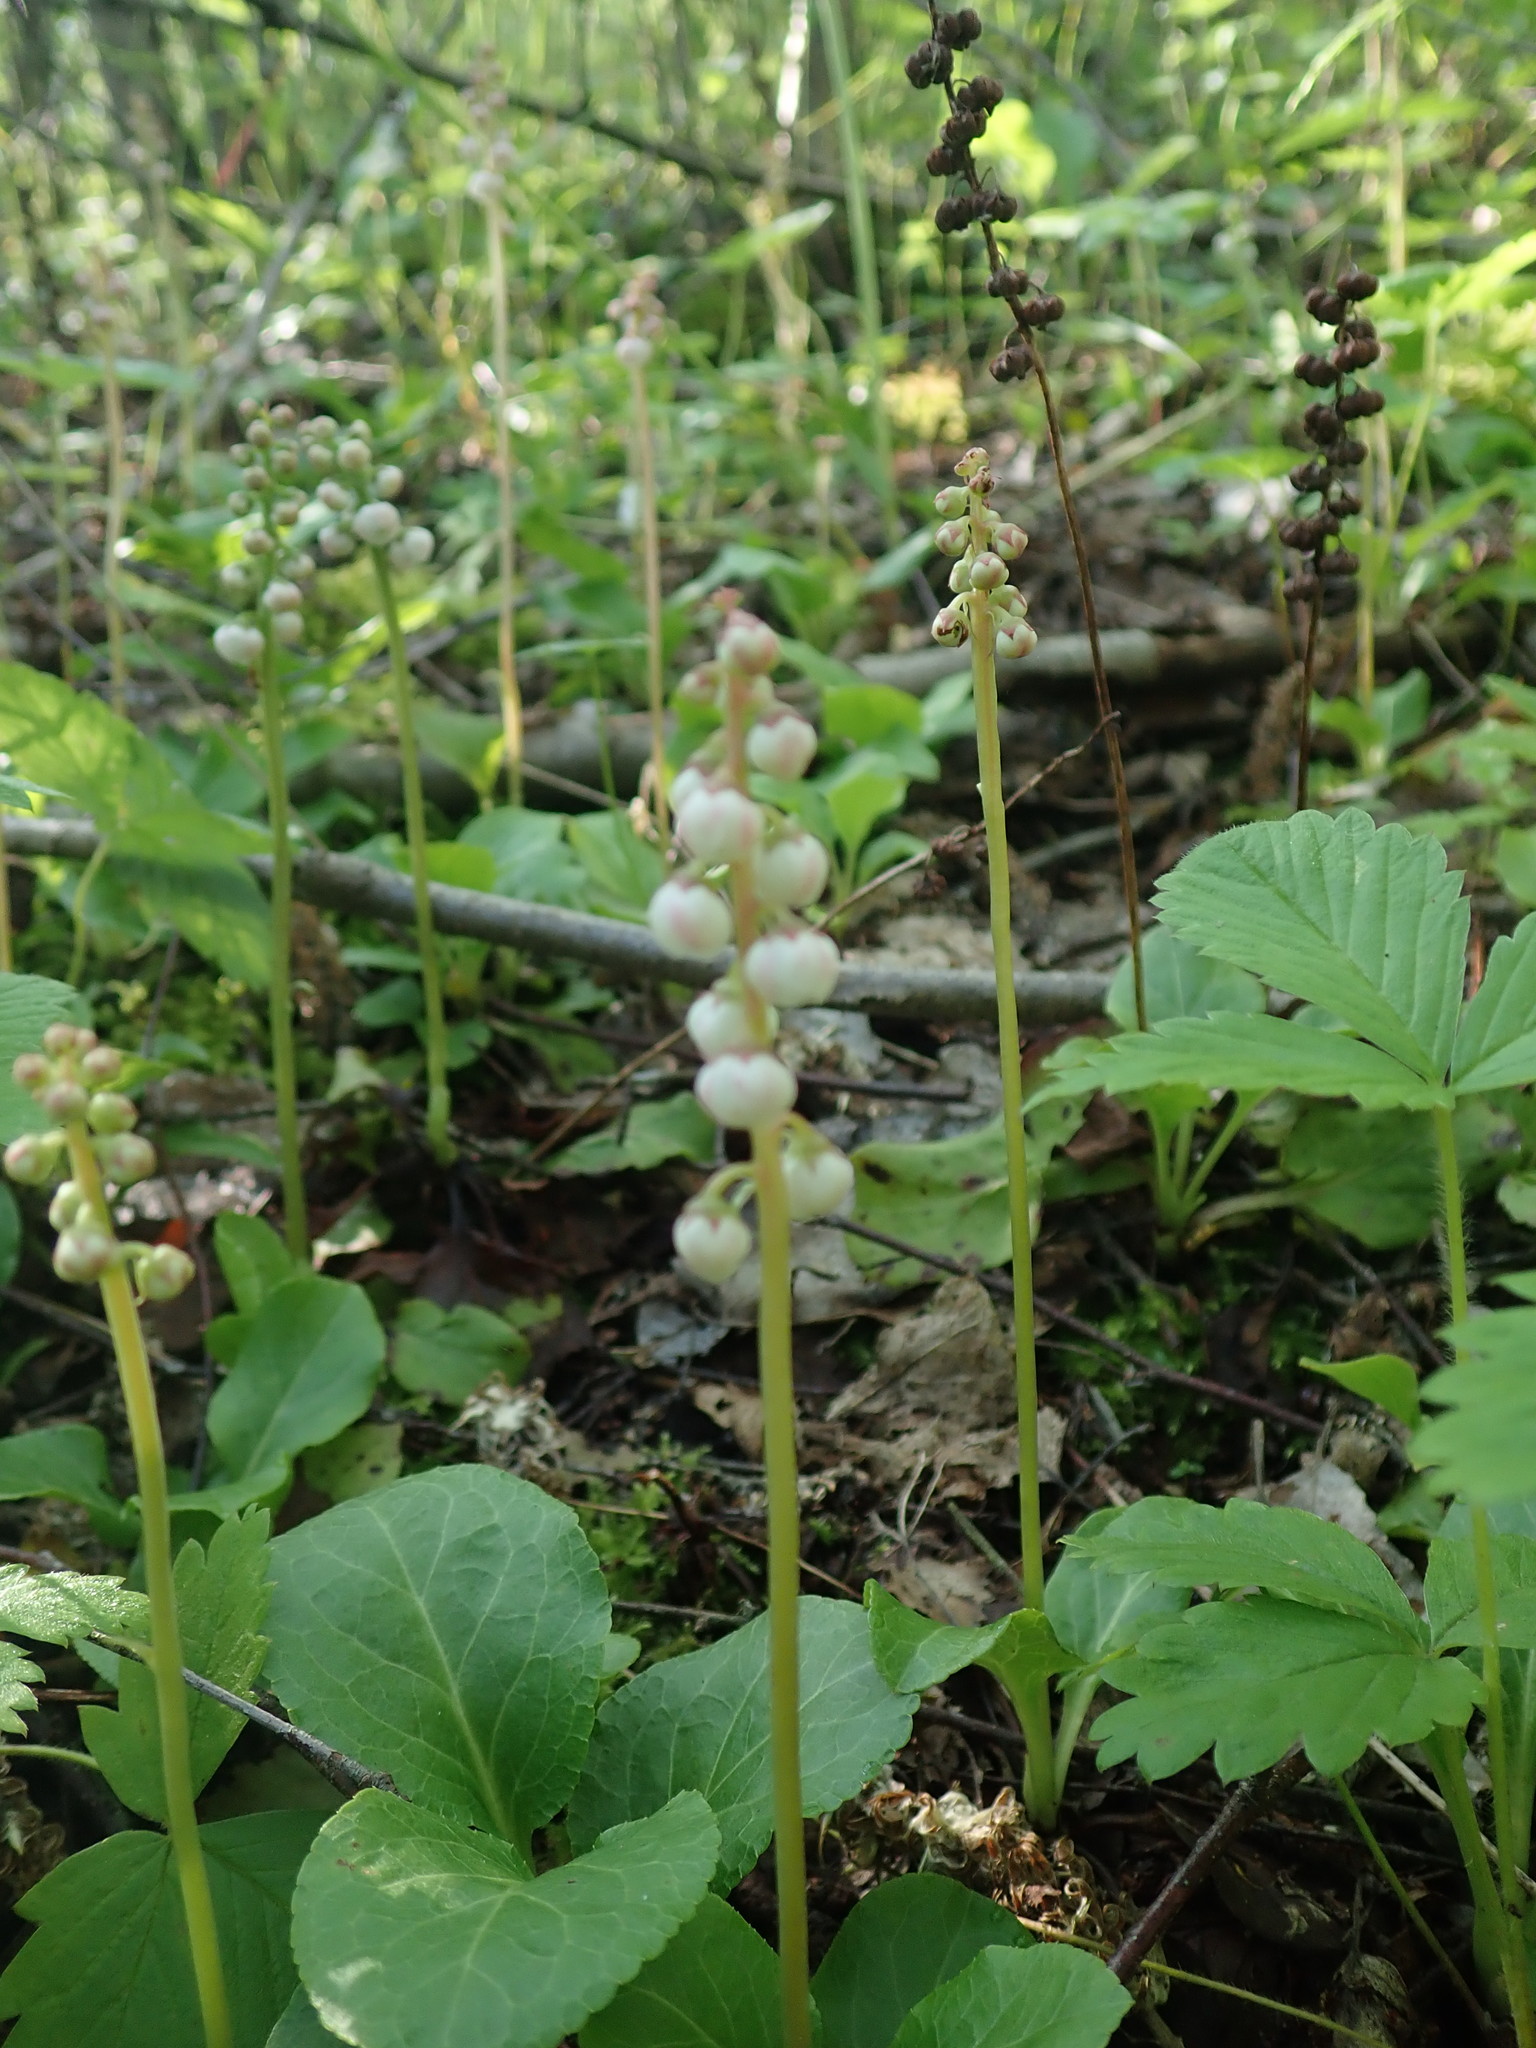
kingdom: Plantae
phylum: Tracheophyta
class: Magnoliopsida
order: Ericales
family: Ericaceae
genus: Pyrola
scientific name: Pyrola minor
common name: Common wintergreen
